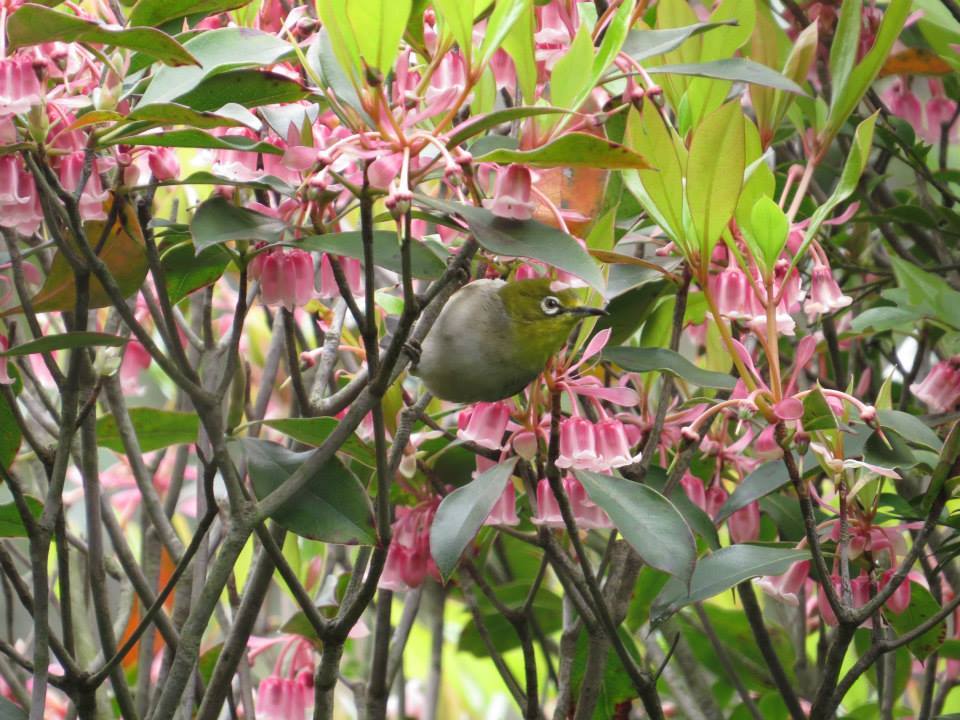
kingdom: Animalia
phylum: Chordata
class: Aves
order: Passeriformes
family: Zosteropidae
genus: Zosterops
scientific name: Zosterops simplex
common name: Swinhoe's white-eye
